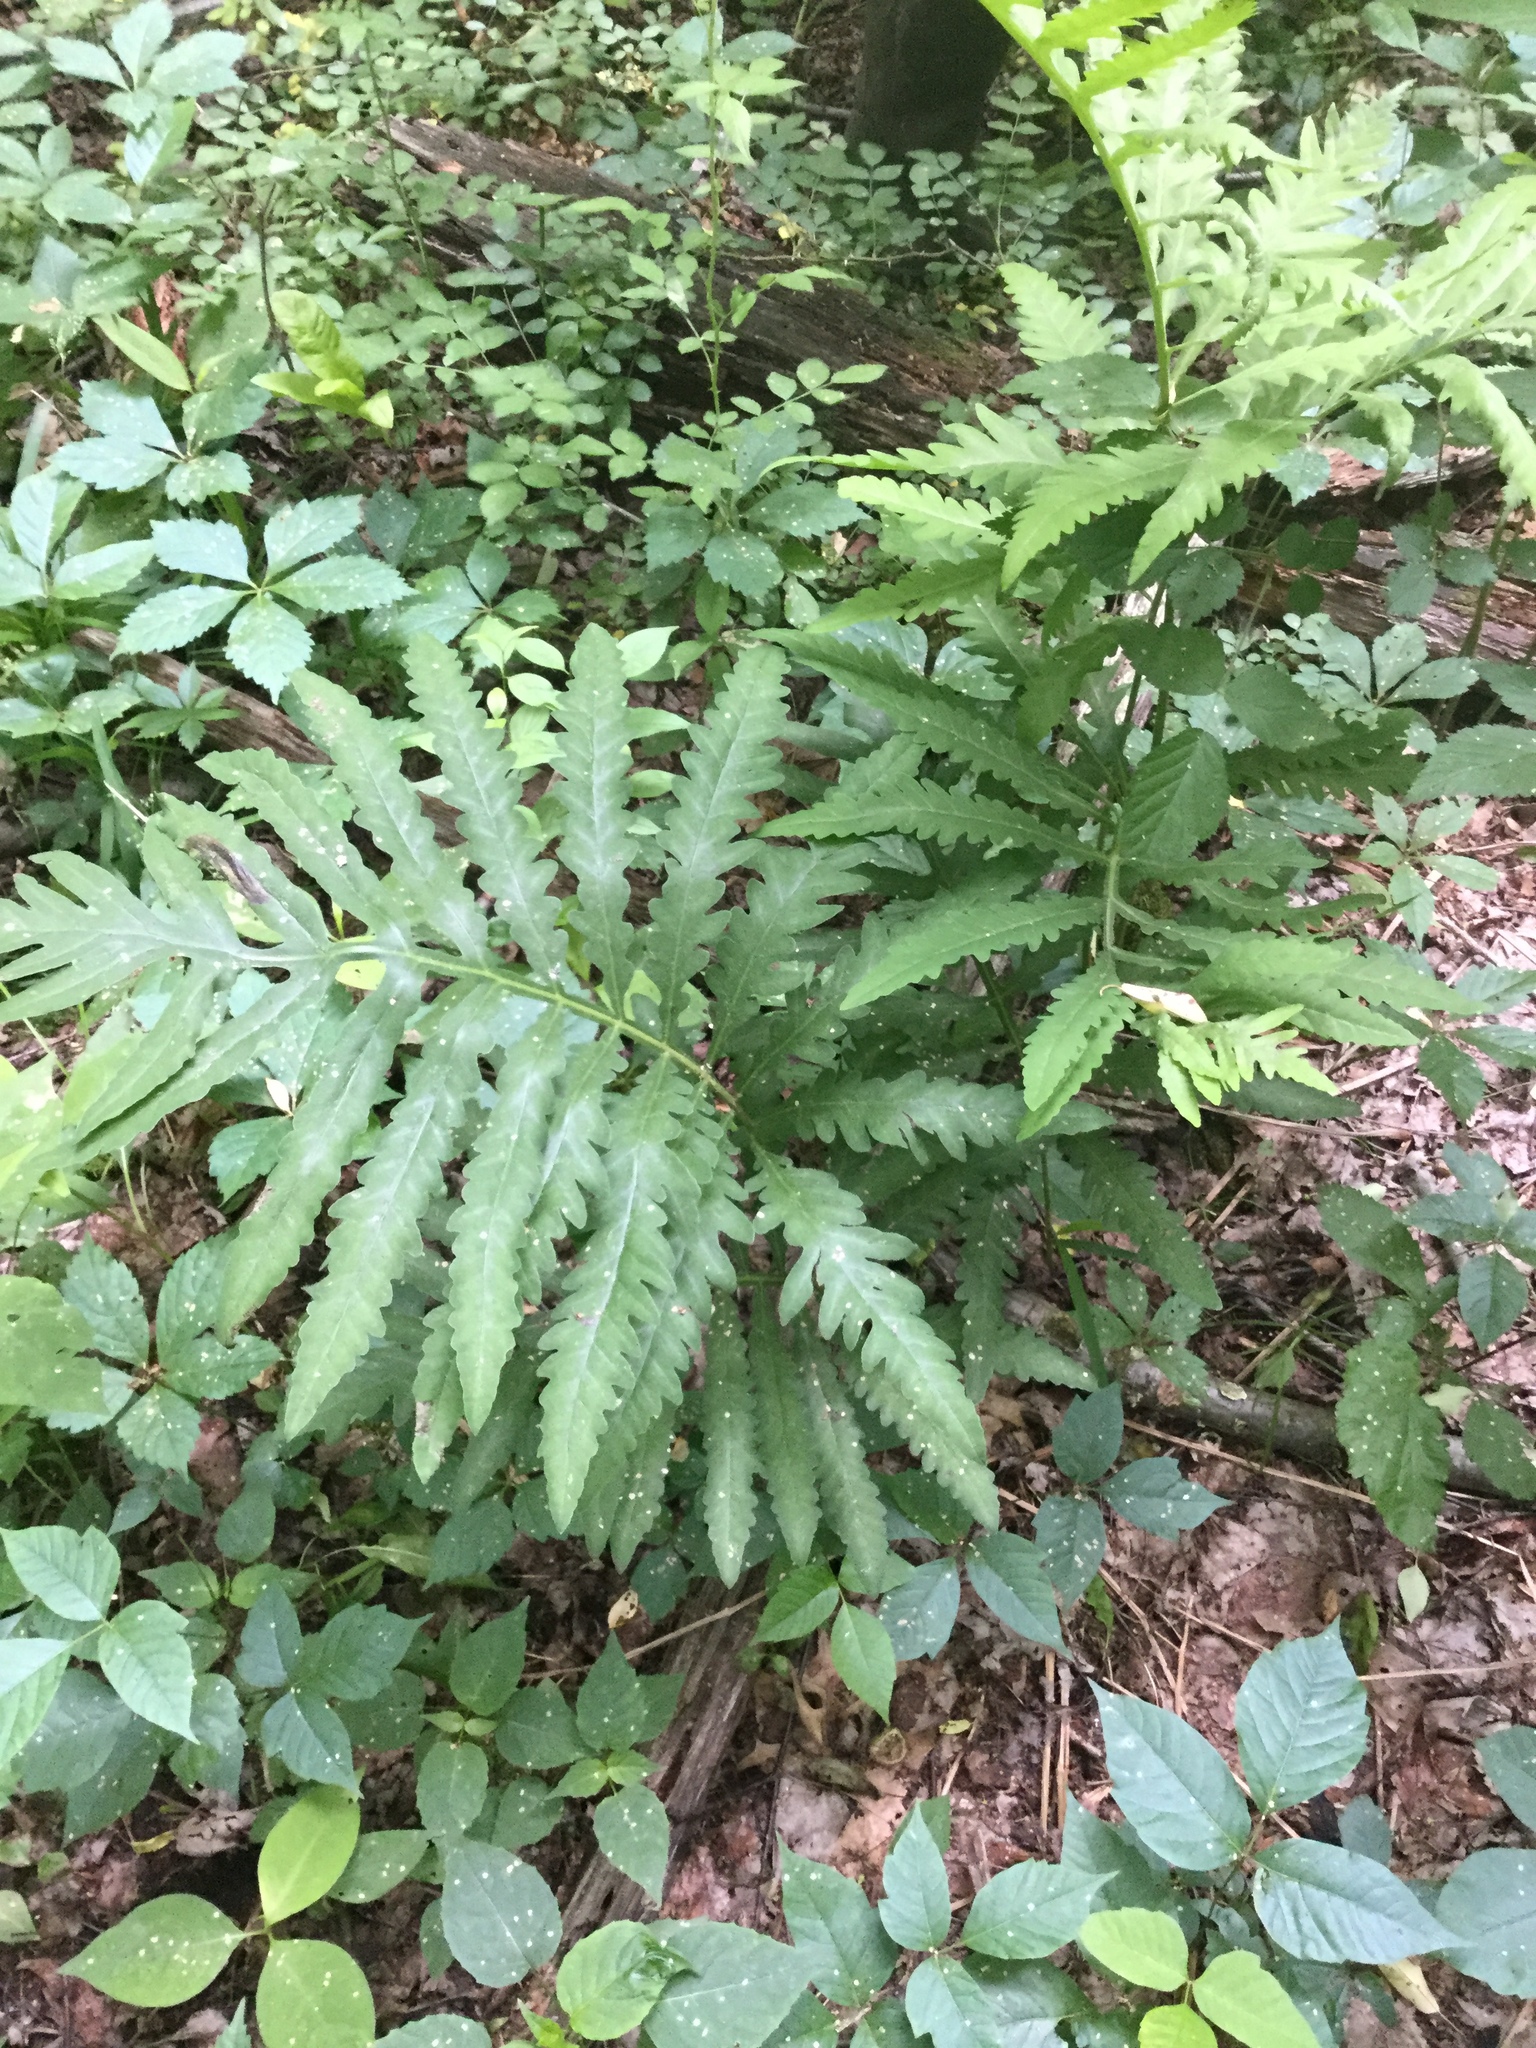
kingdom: Plantae
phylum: Tracheophyta
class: Polypodiopsida
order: Polypodiales
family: Onocleaceae
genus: Onoclea
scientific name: Onoclea sensibilis
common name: Sensitive fern
